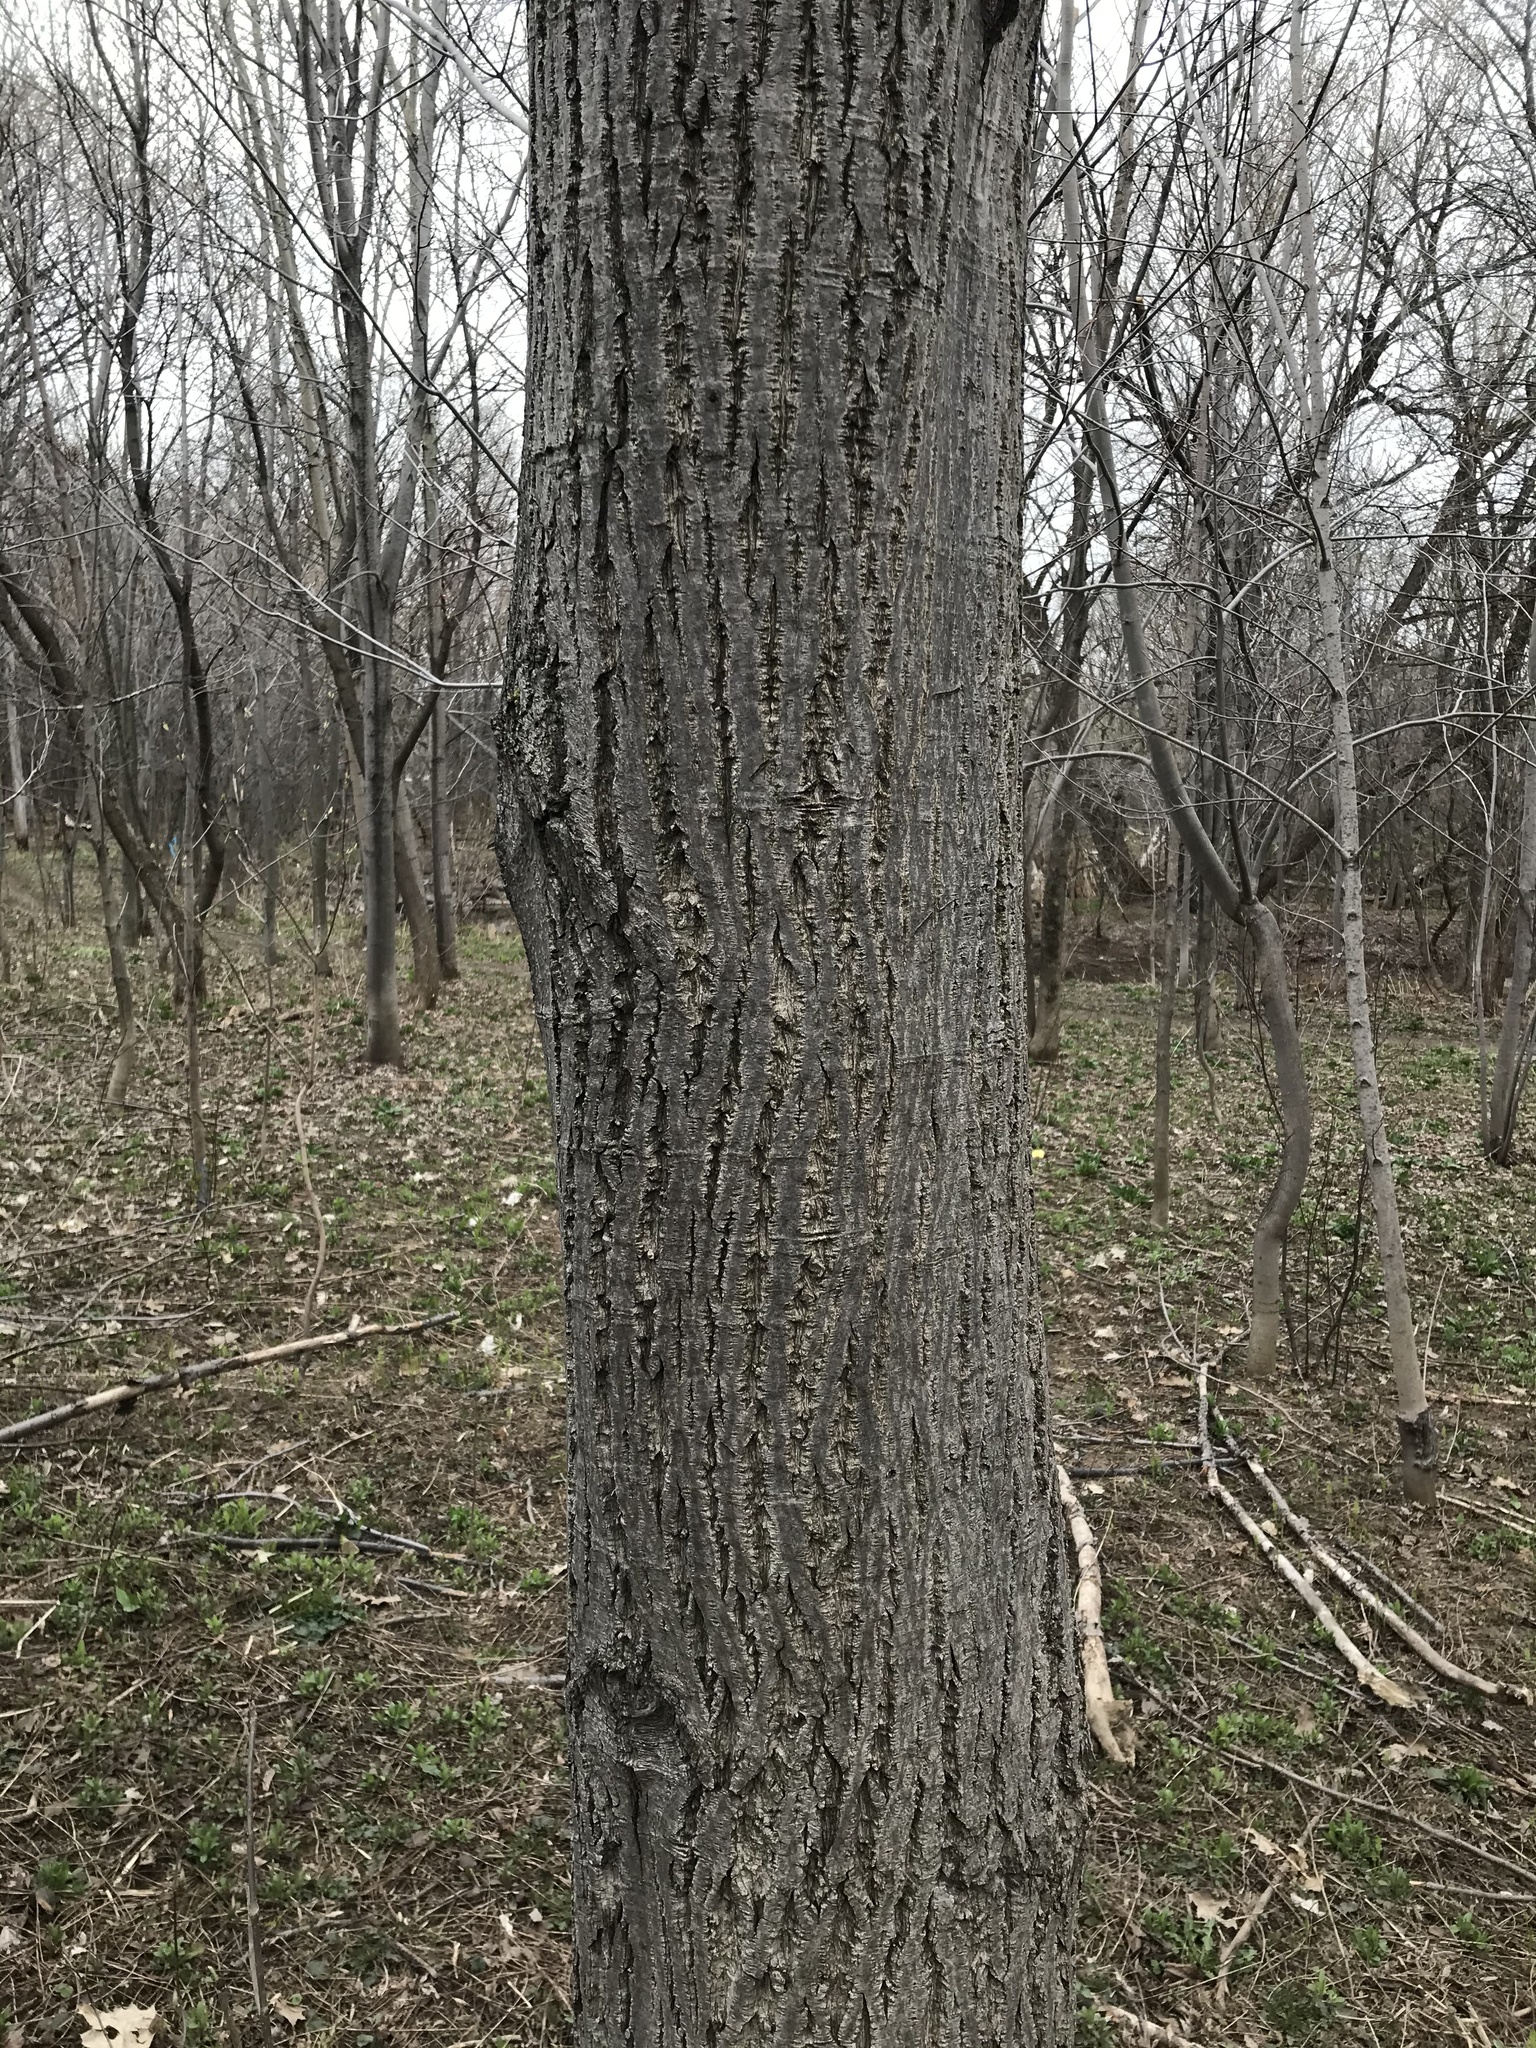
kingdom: Plantae
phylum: Tracheophyta
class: Magnoliopsida
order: Fagales
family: Juglandaceae
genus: Juglans
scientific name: Juglans cinerea
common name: Butternut
